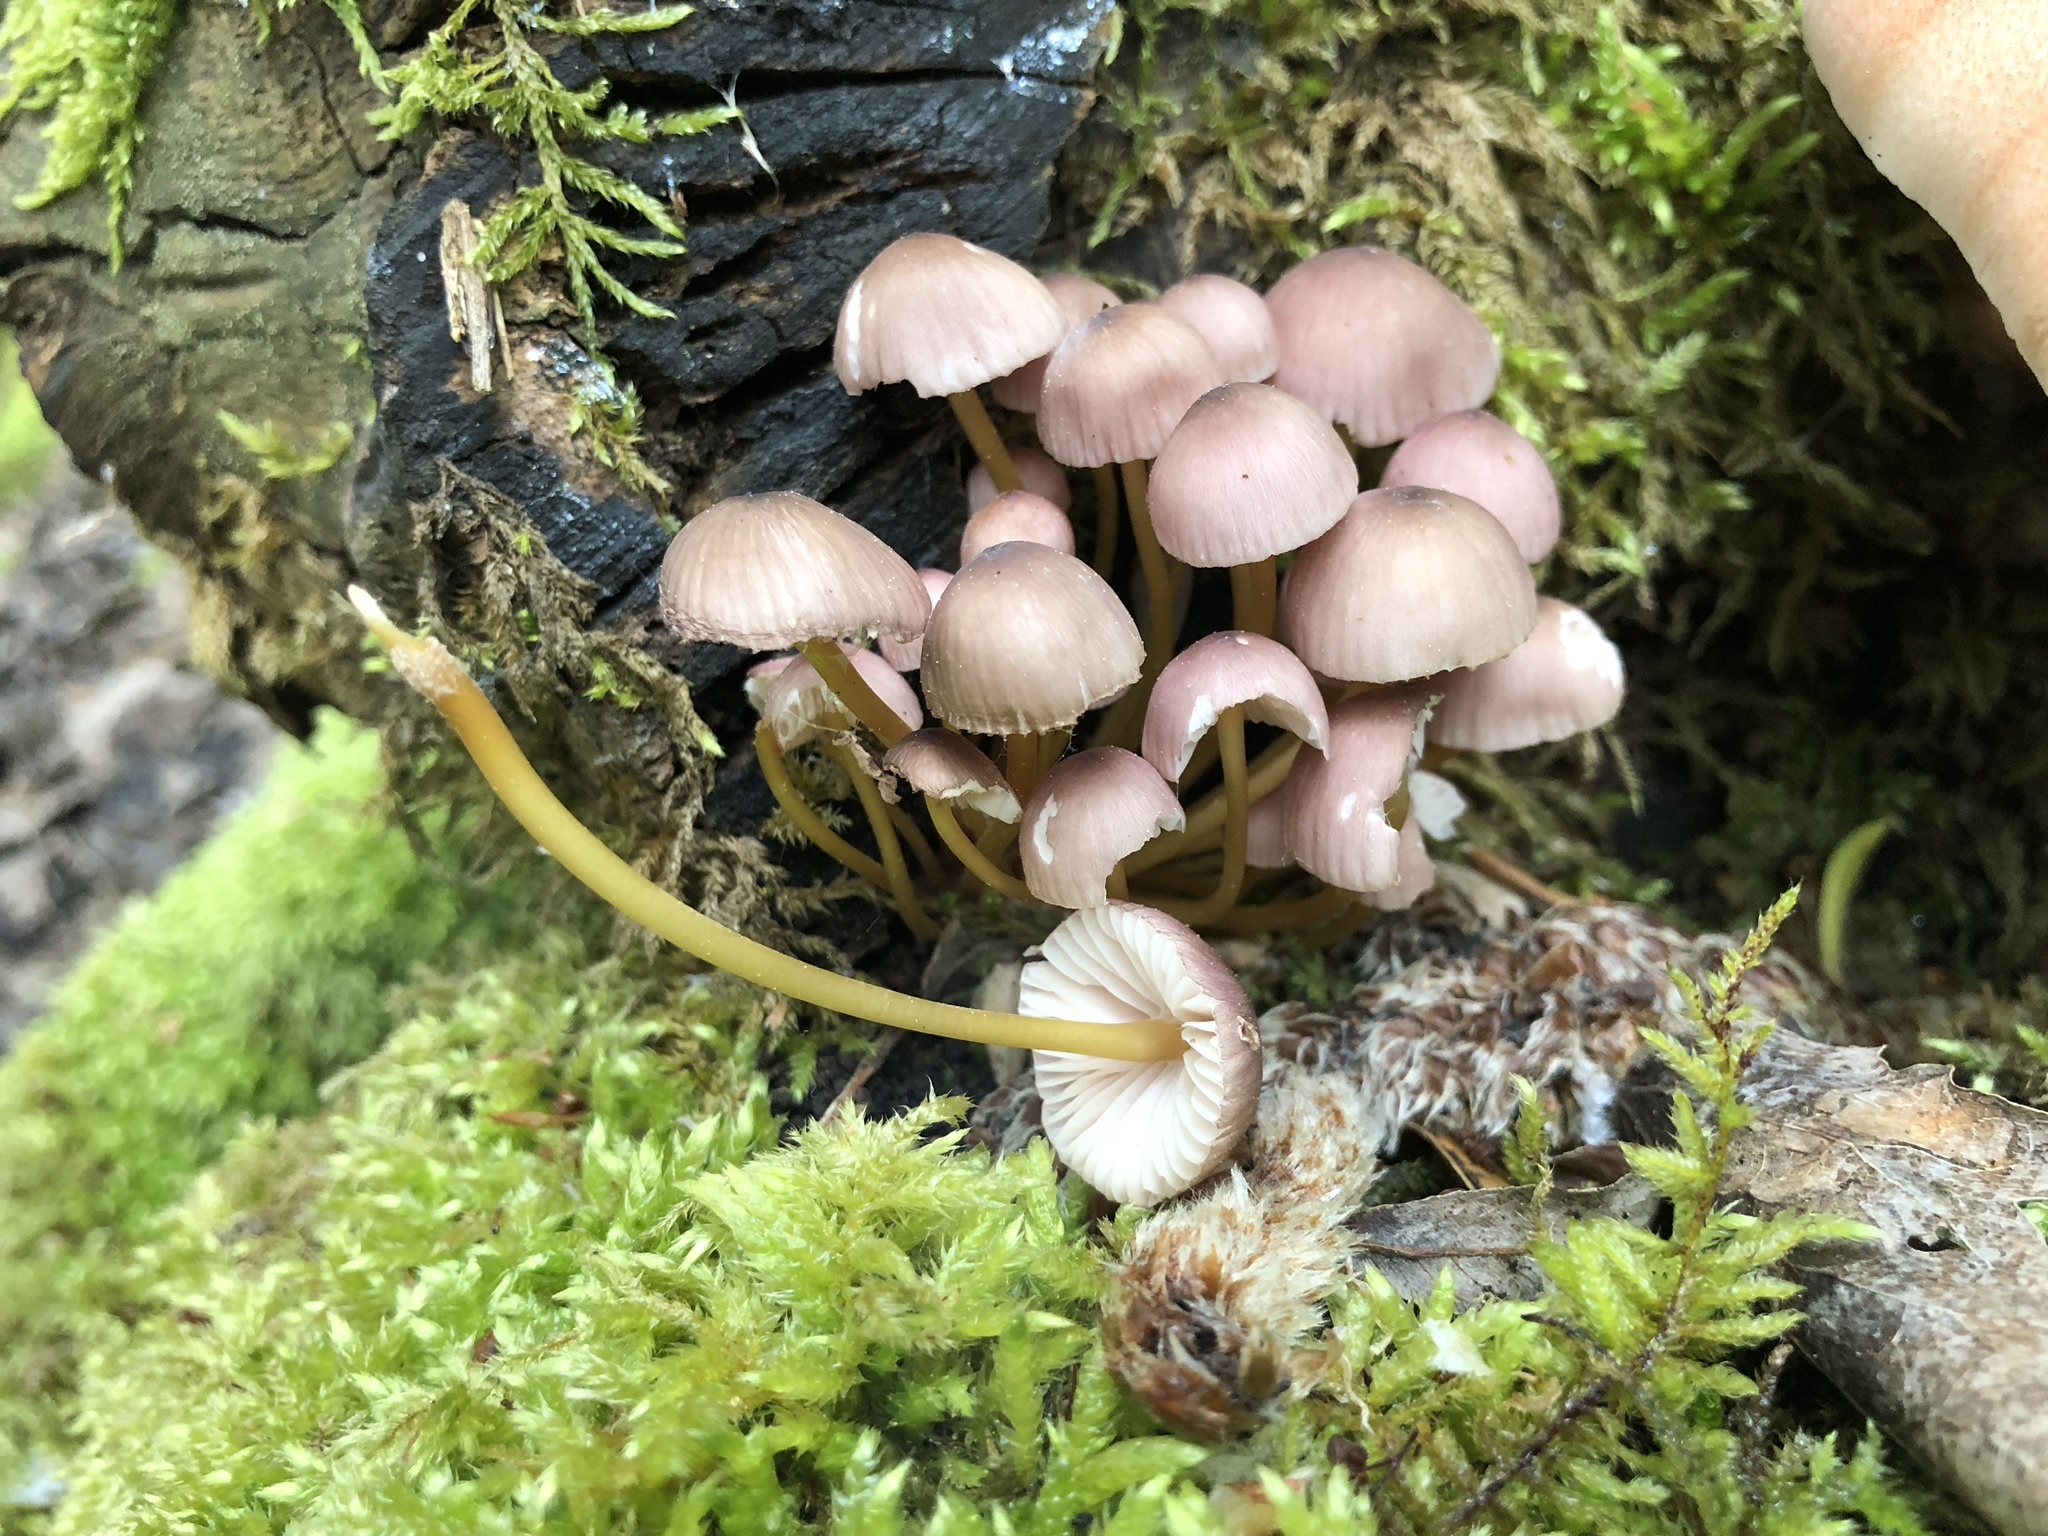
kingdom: Fungi
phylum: Basidiomycota
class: Agaricomycetes
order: Agaricales
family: Mycenaceae
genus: Mycena
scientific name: Mycena renati
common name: Beautiful bonnet
